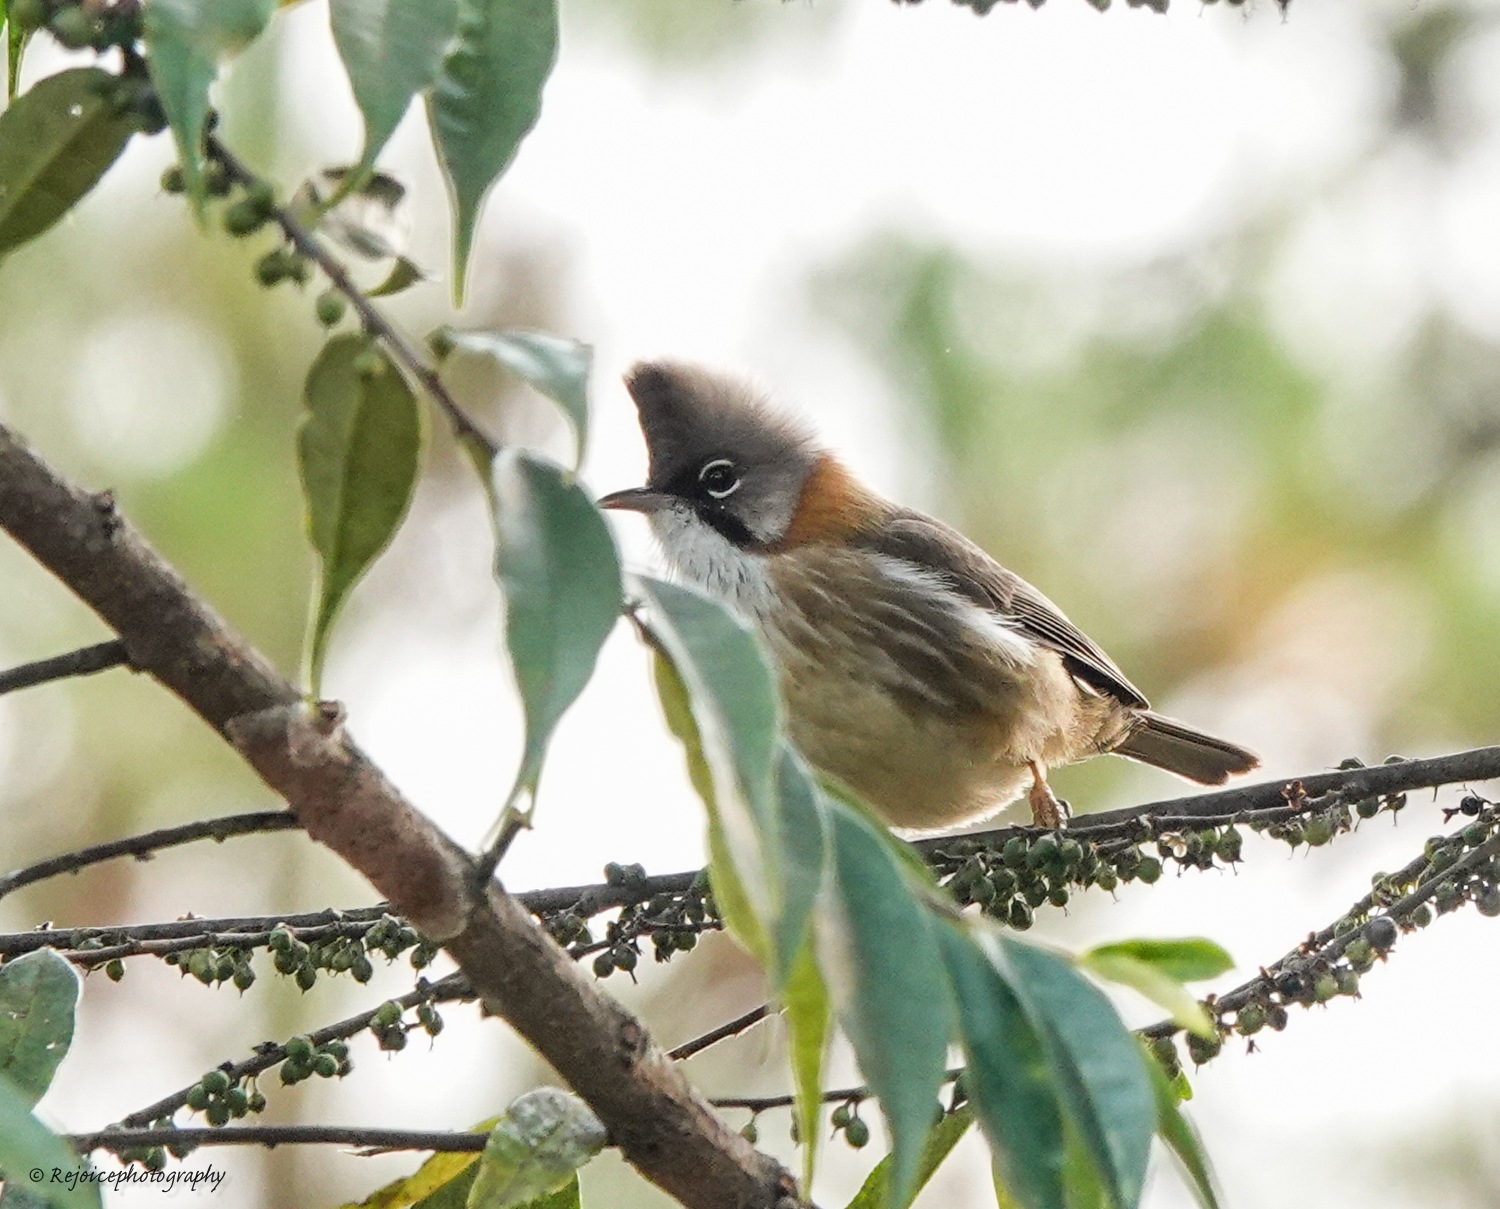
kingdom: Animalia
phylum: Chordata
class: Aves
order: Passeriformes
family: Zosteropidae
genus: Yuhina
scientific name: Yuhina flavicollis
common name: Whiskered yuhina
